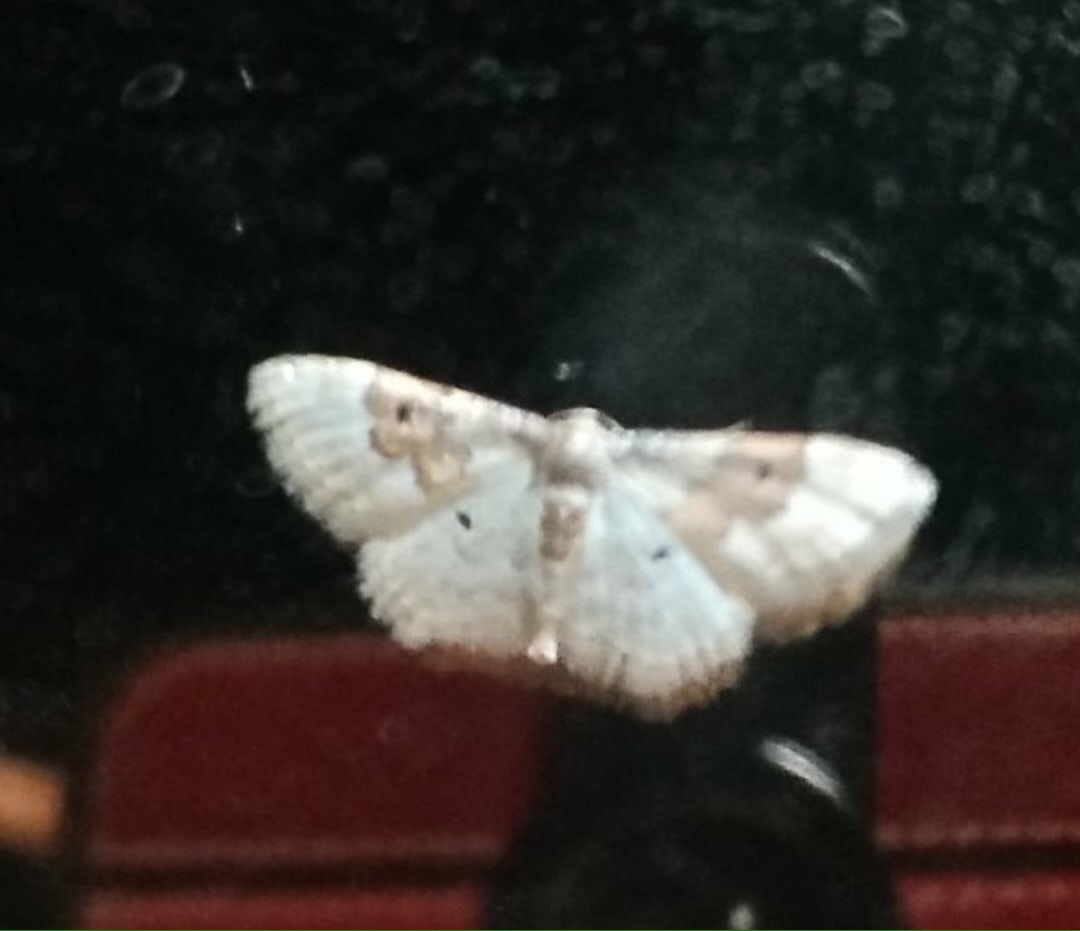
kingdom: Animalia
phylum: Arthropoda
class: Insecta
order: Lepidoptera
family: Geometridae
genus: Idaea
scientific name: Idaea rusticata
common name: Least carpet
